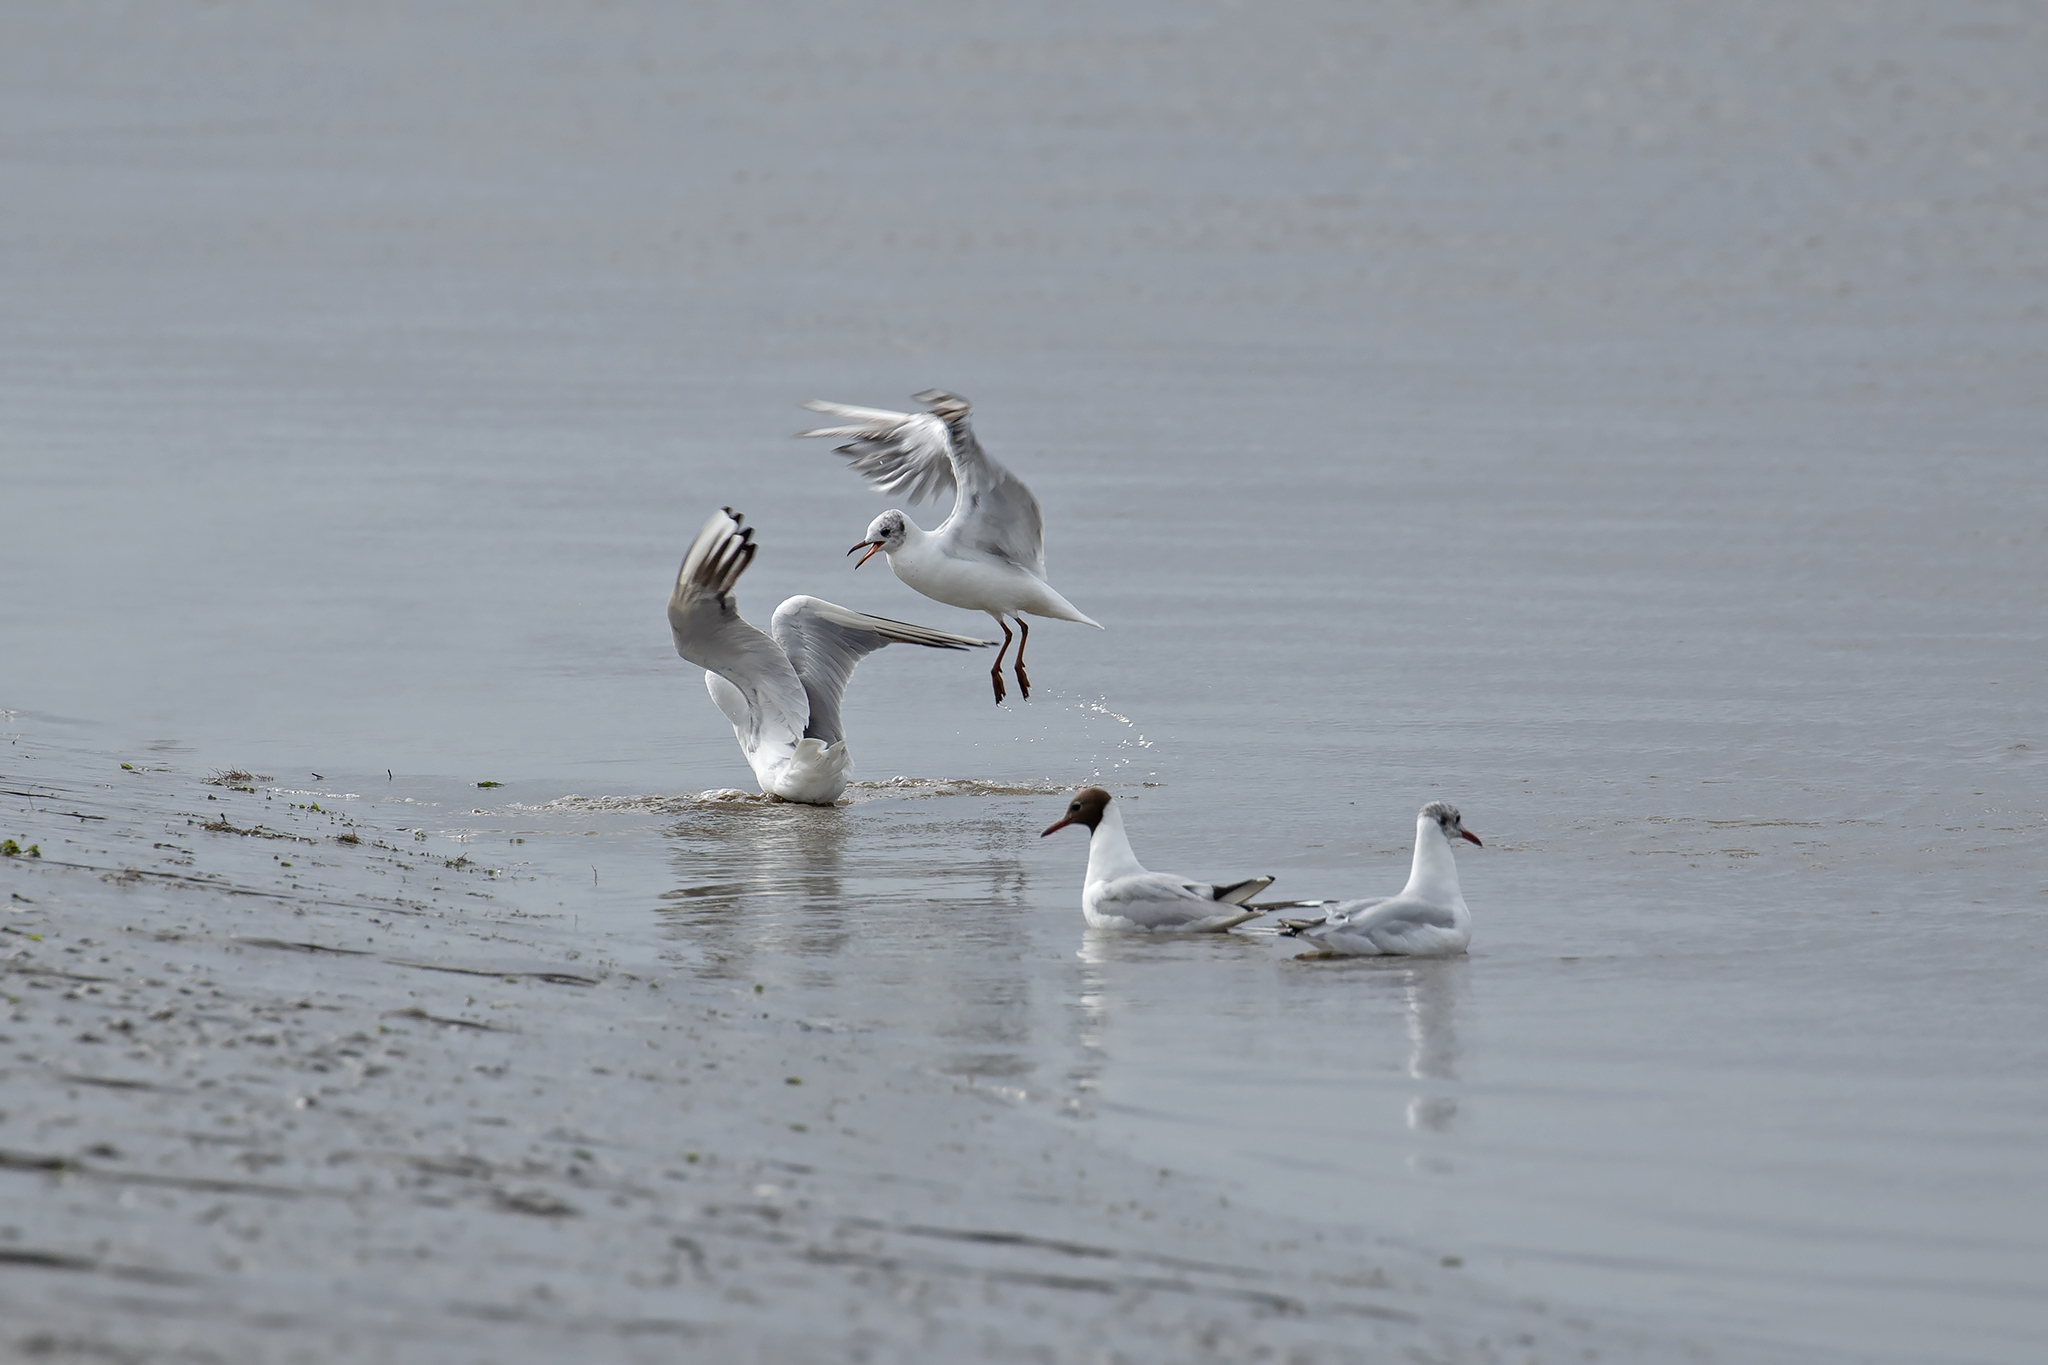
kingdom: Animalia
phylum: Chordata
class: Aves
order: Charadriiformes
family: Laridae
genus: Chroicocephalus
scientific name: Chroicocephalus ridibundus
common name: Black-headed gull
